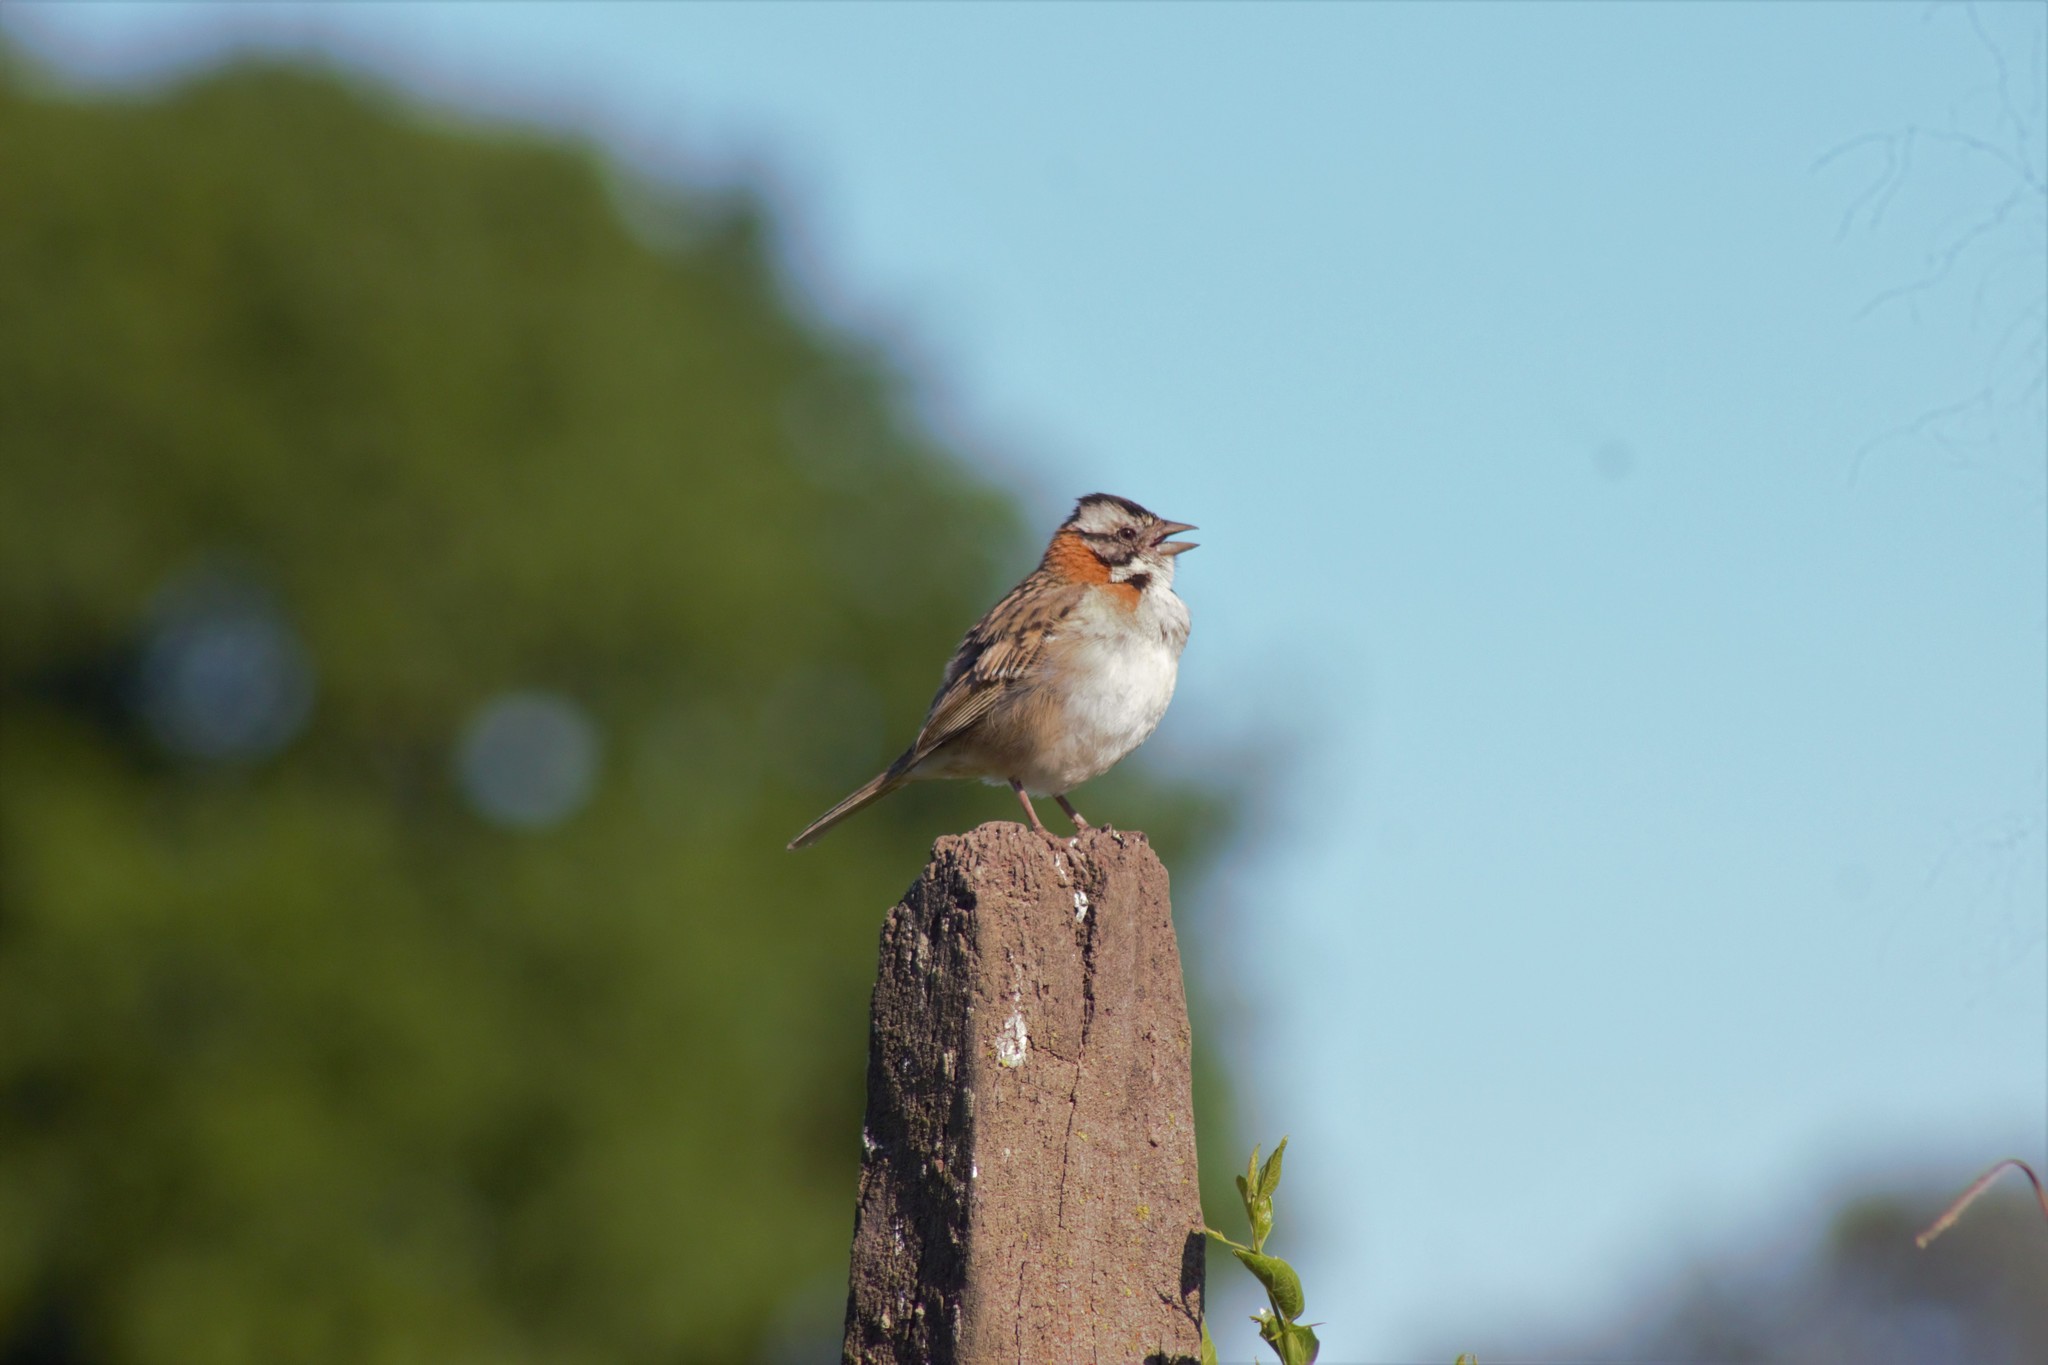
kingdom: Animalia
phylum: Chordata
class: Aves
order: Passeriformes
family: Passerellidae
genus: Zonotrichia
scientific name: Zonotrichia capensis
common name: Rufous-collared sparrow
